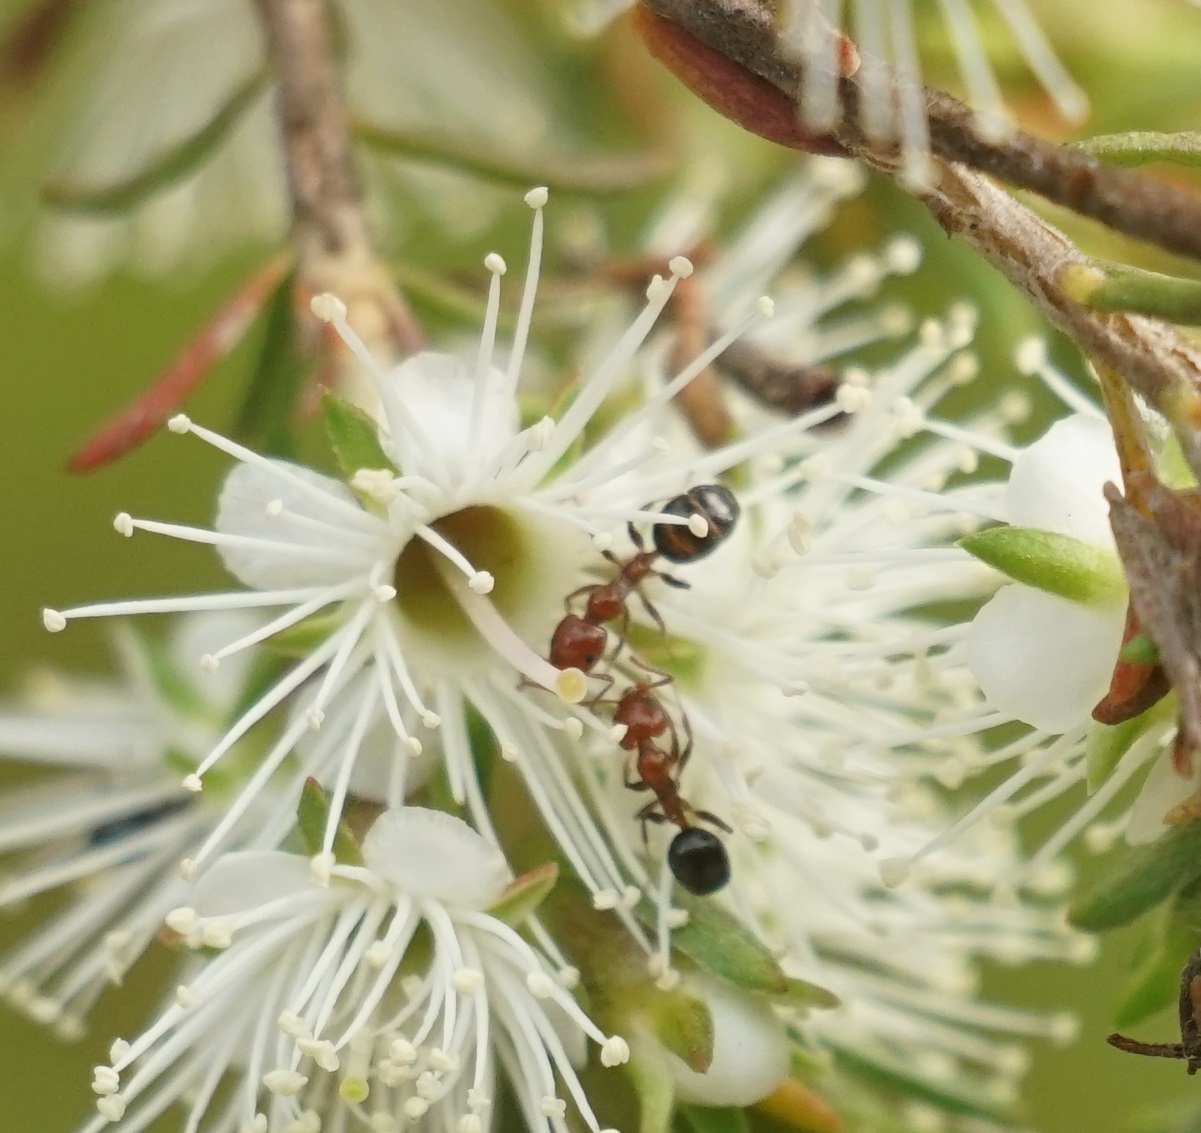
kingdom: Animalia
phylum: Arthropoda
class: Insecta
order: Hymenoptera
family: Formicidae
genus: Froggattella
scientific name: Froggattella kirbii
